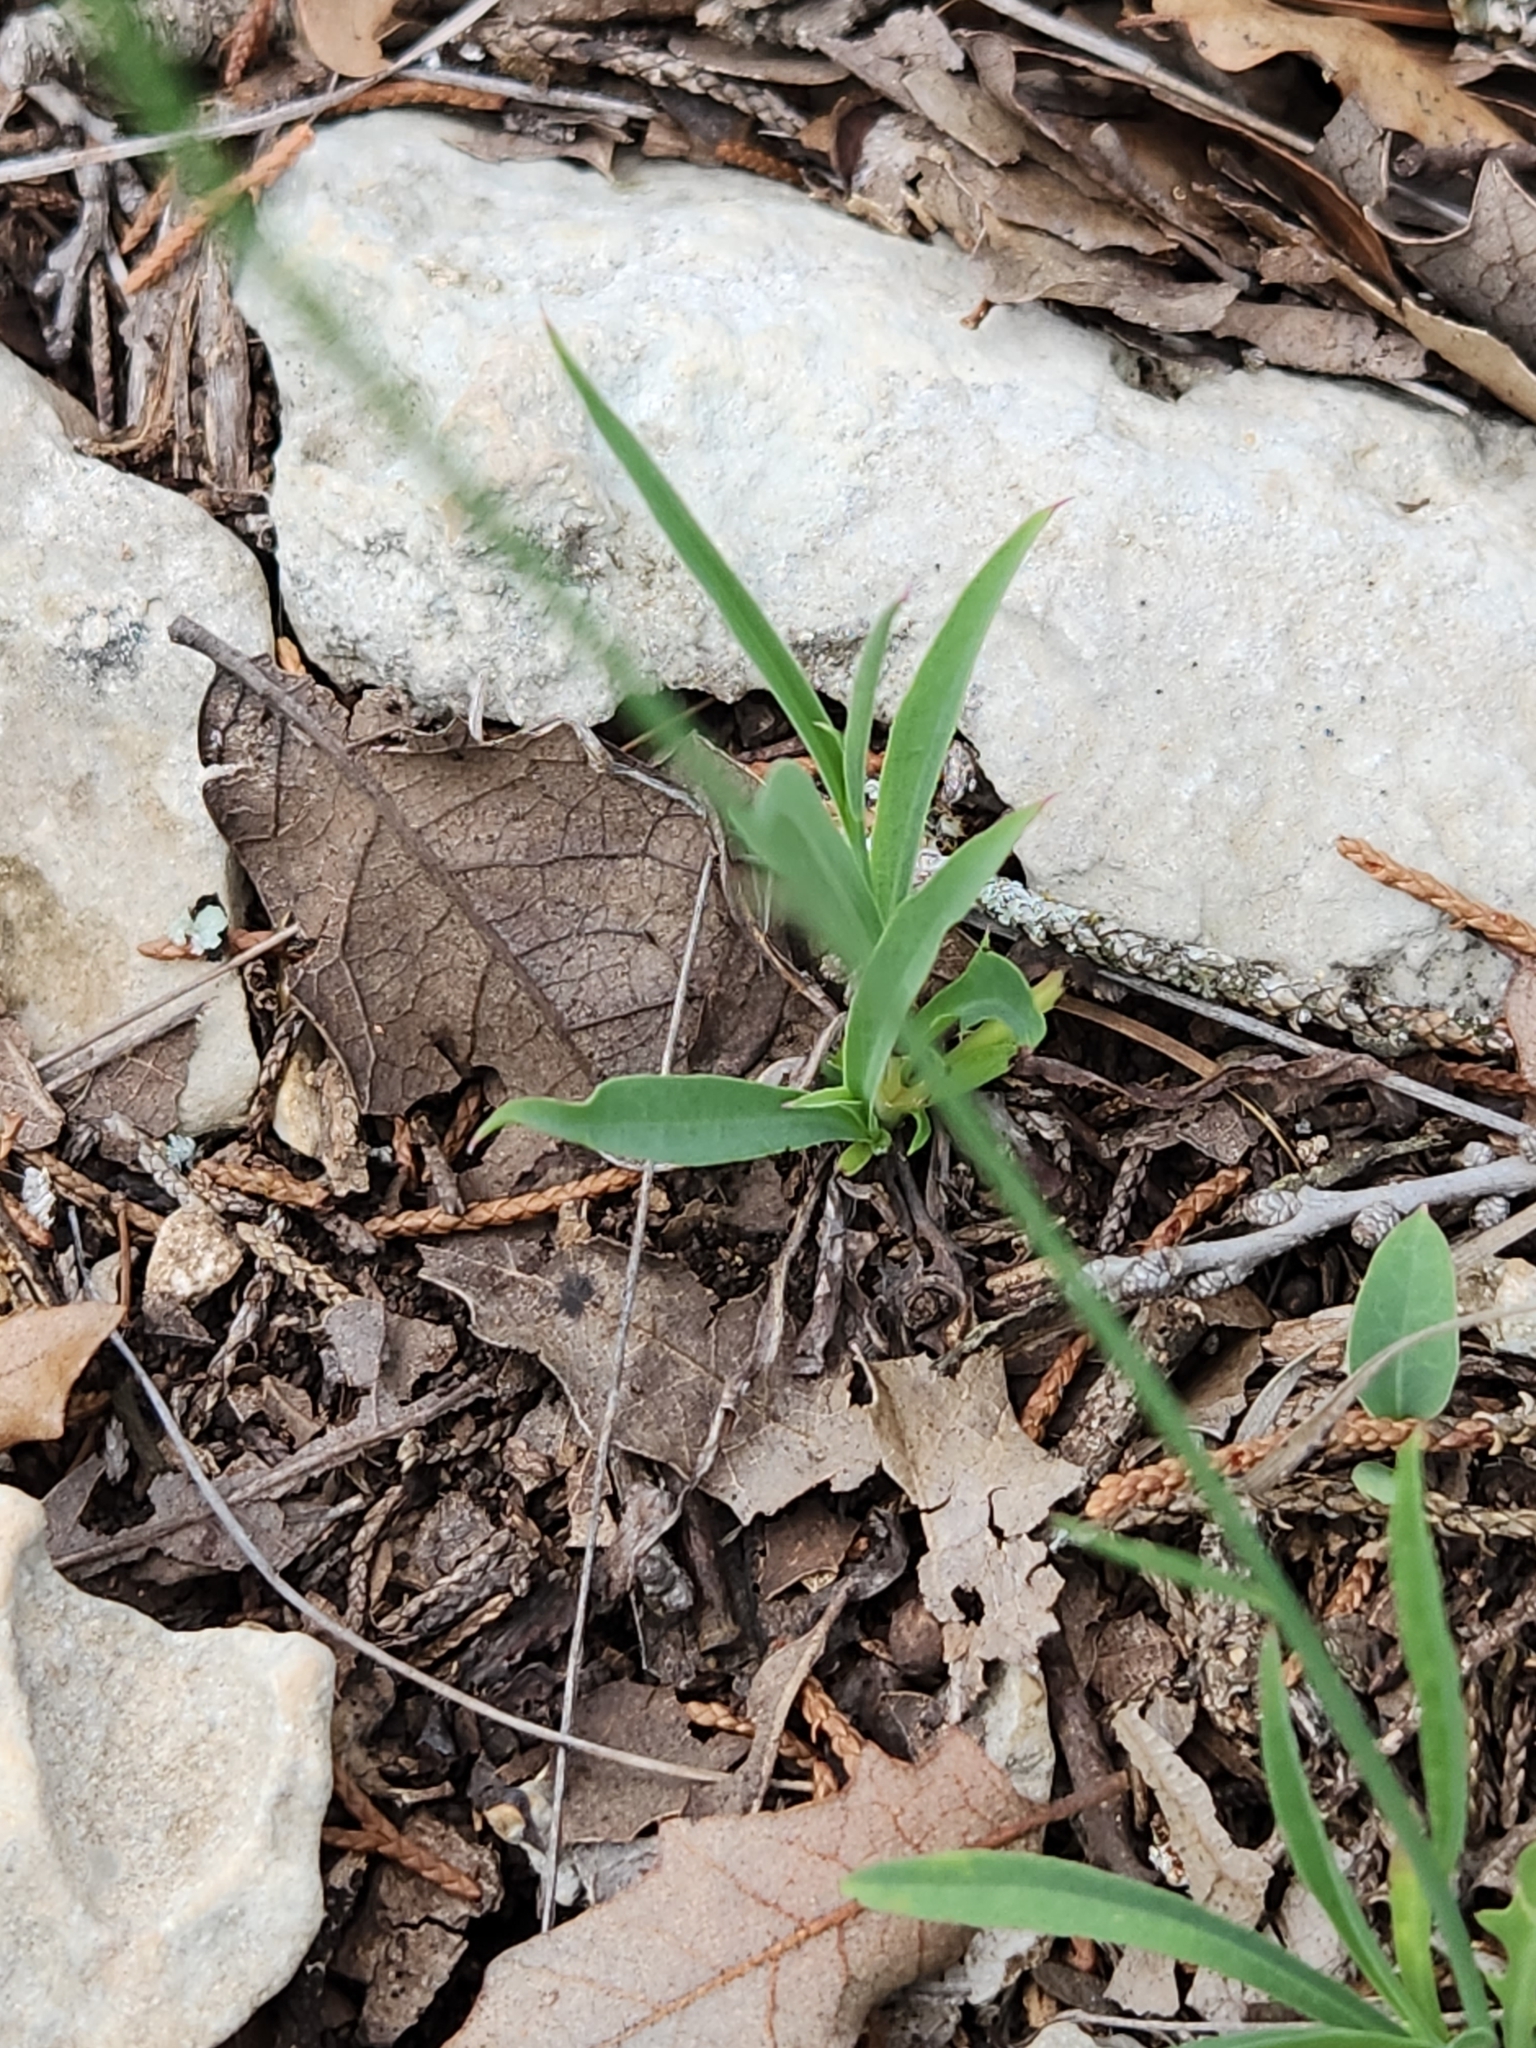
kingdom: Plantae
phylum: Tracheophyta
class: Magnoliopsida
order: Asterales
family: Asteraceae
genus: Pinaropappus
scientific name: Pinaropappus roseus
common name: Rock-lettuce
